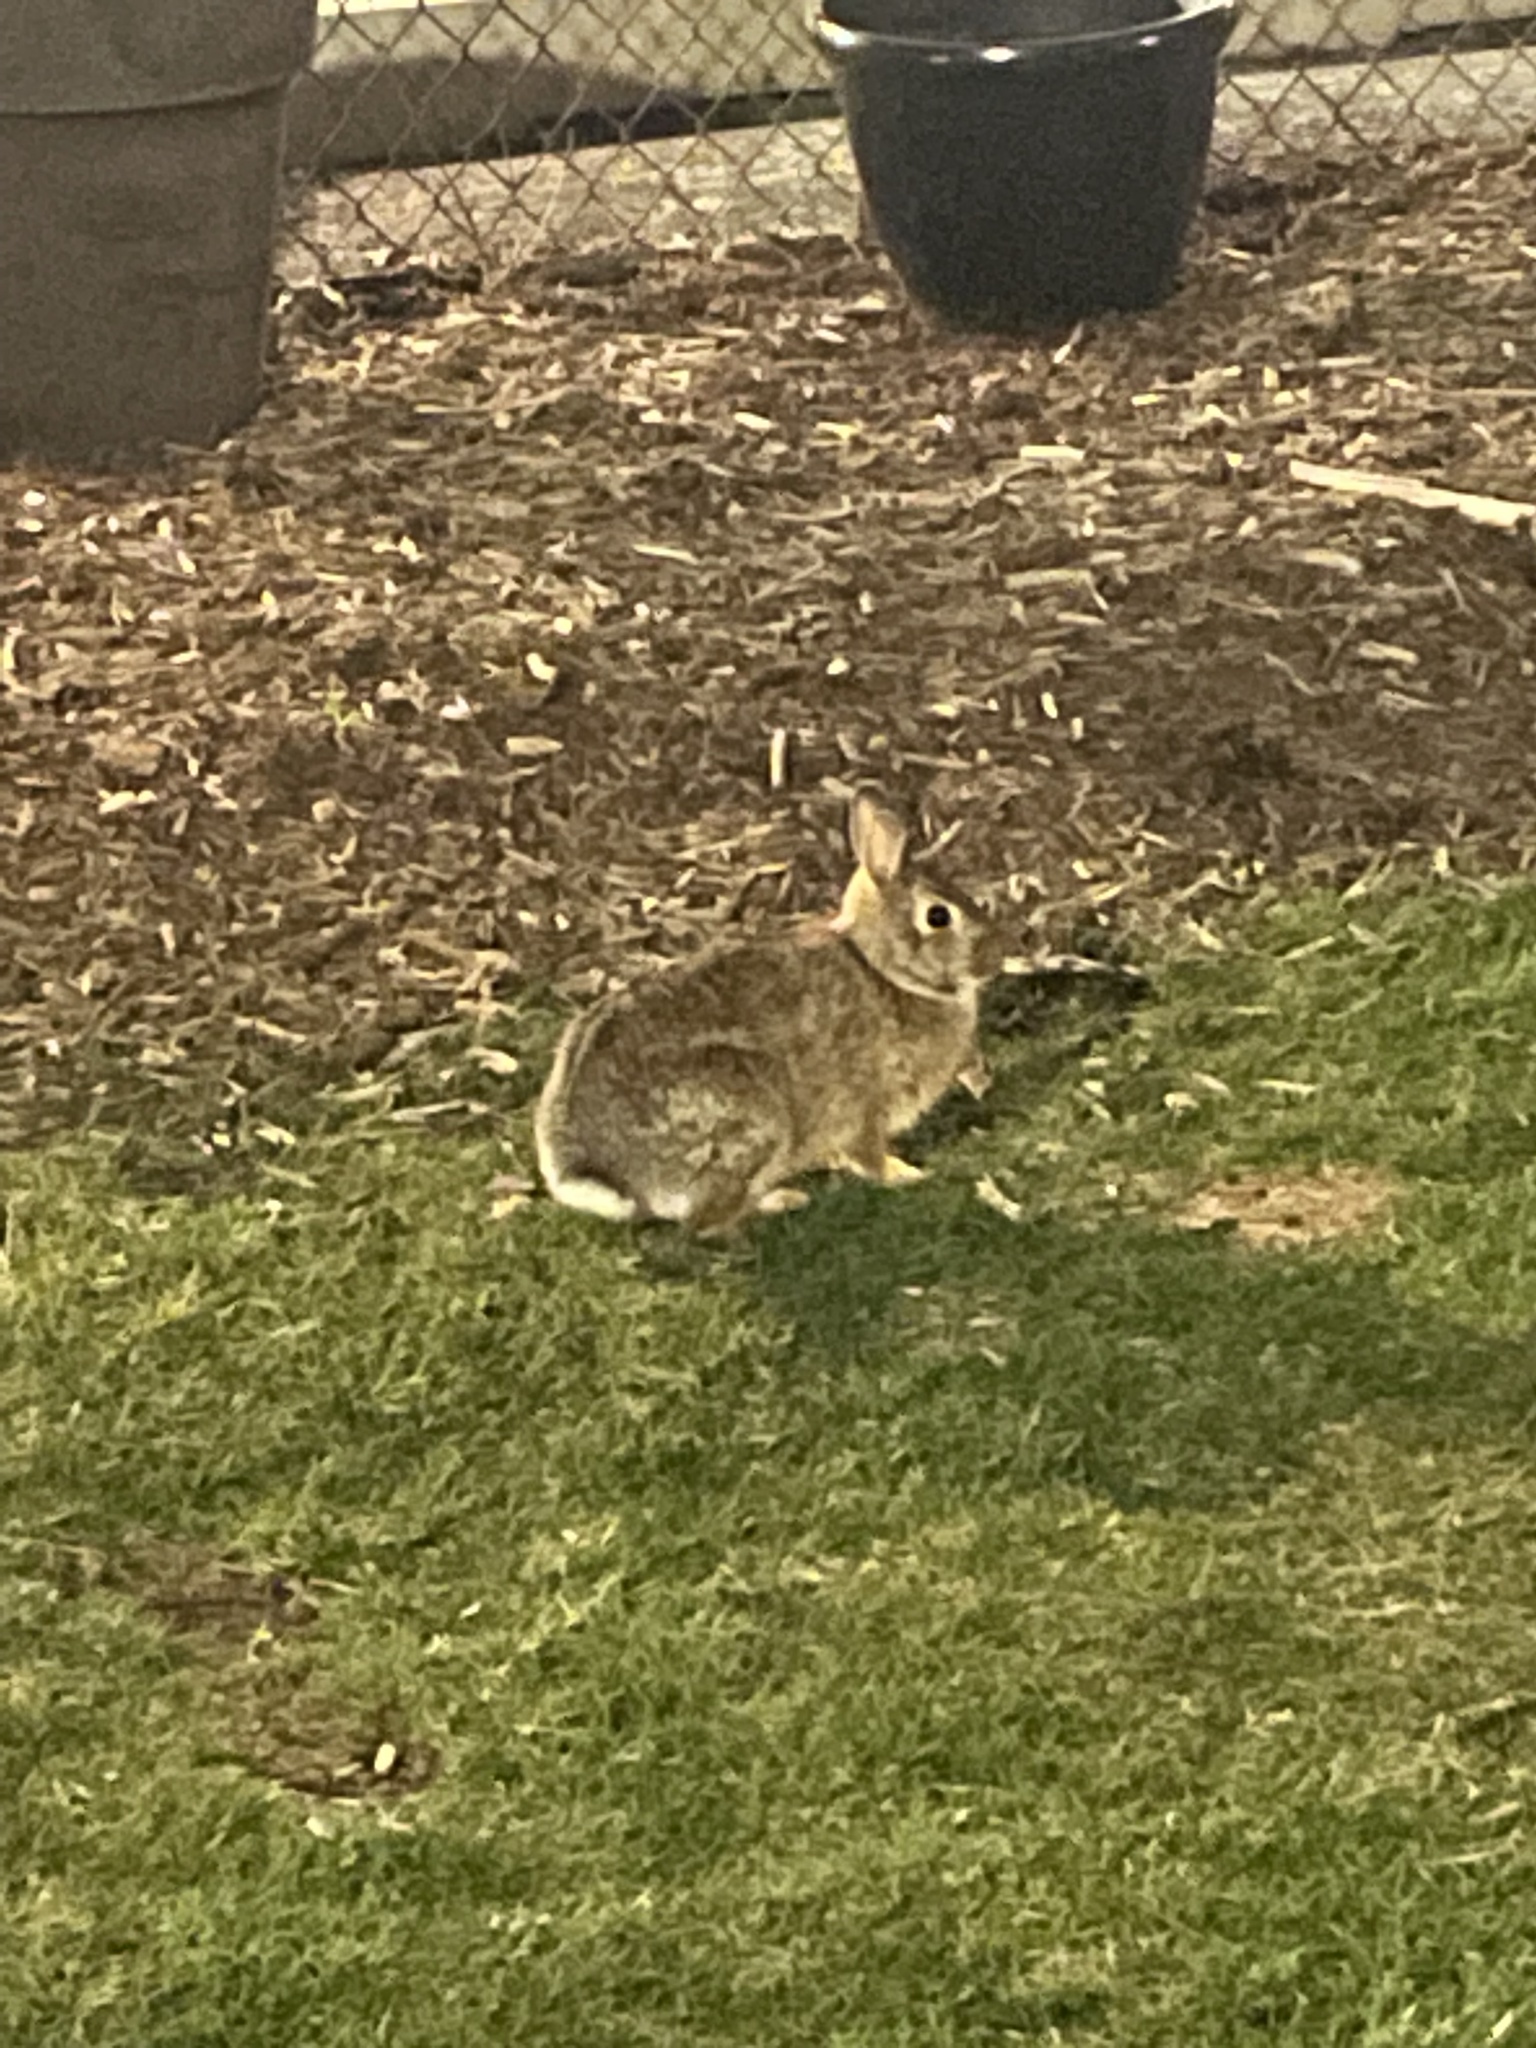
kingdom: Animalia
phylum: Chordata
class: Mammalia
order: Lagomorpha
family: Leporidae
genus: Sylvilagus
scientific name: Sylvilagus floridanus
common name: Eastern cottontail
